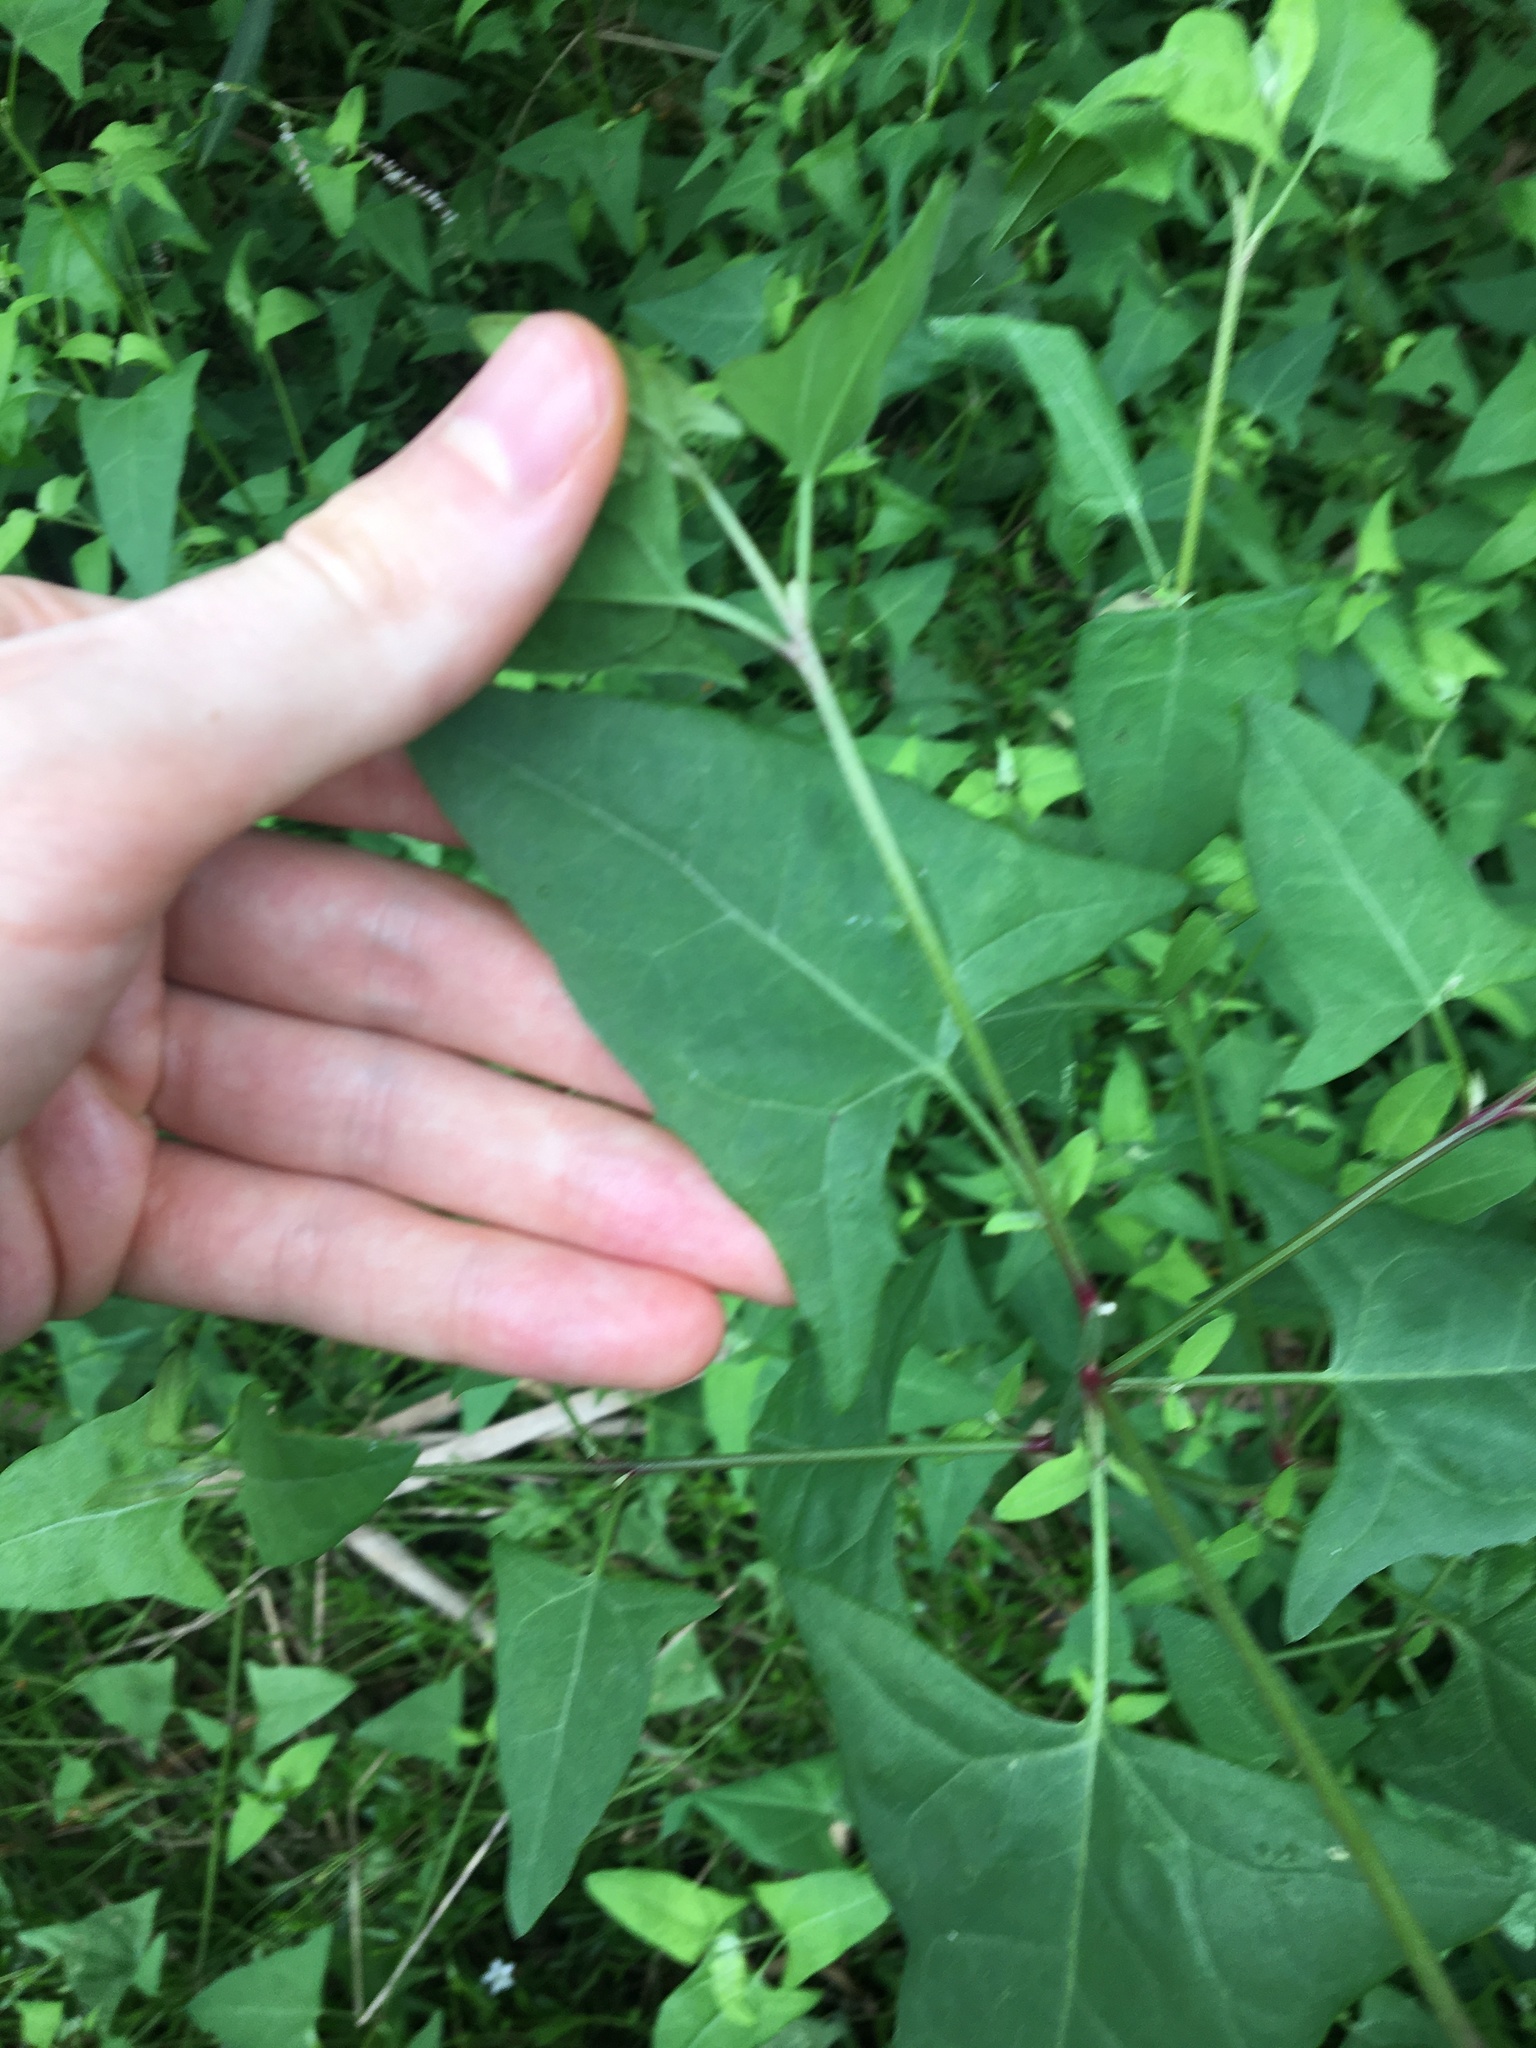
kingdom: Plantae
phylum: Tracheophyta
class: Magnoliopsida
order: Caryophyllales
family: Amaranthaceae
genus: Atriplex
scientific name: Atriplex prostrata
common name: Spear-leaved orache
